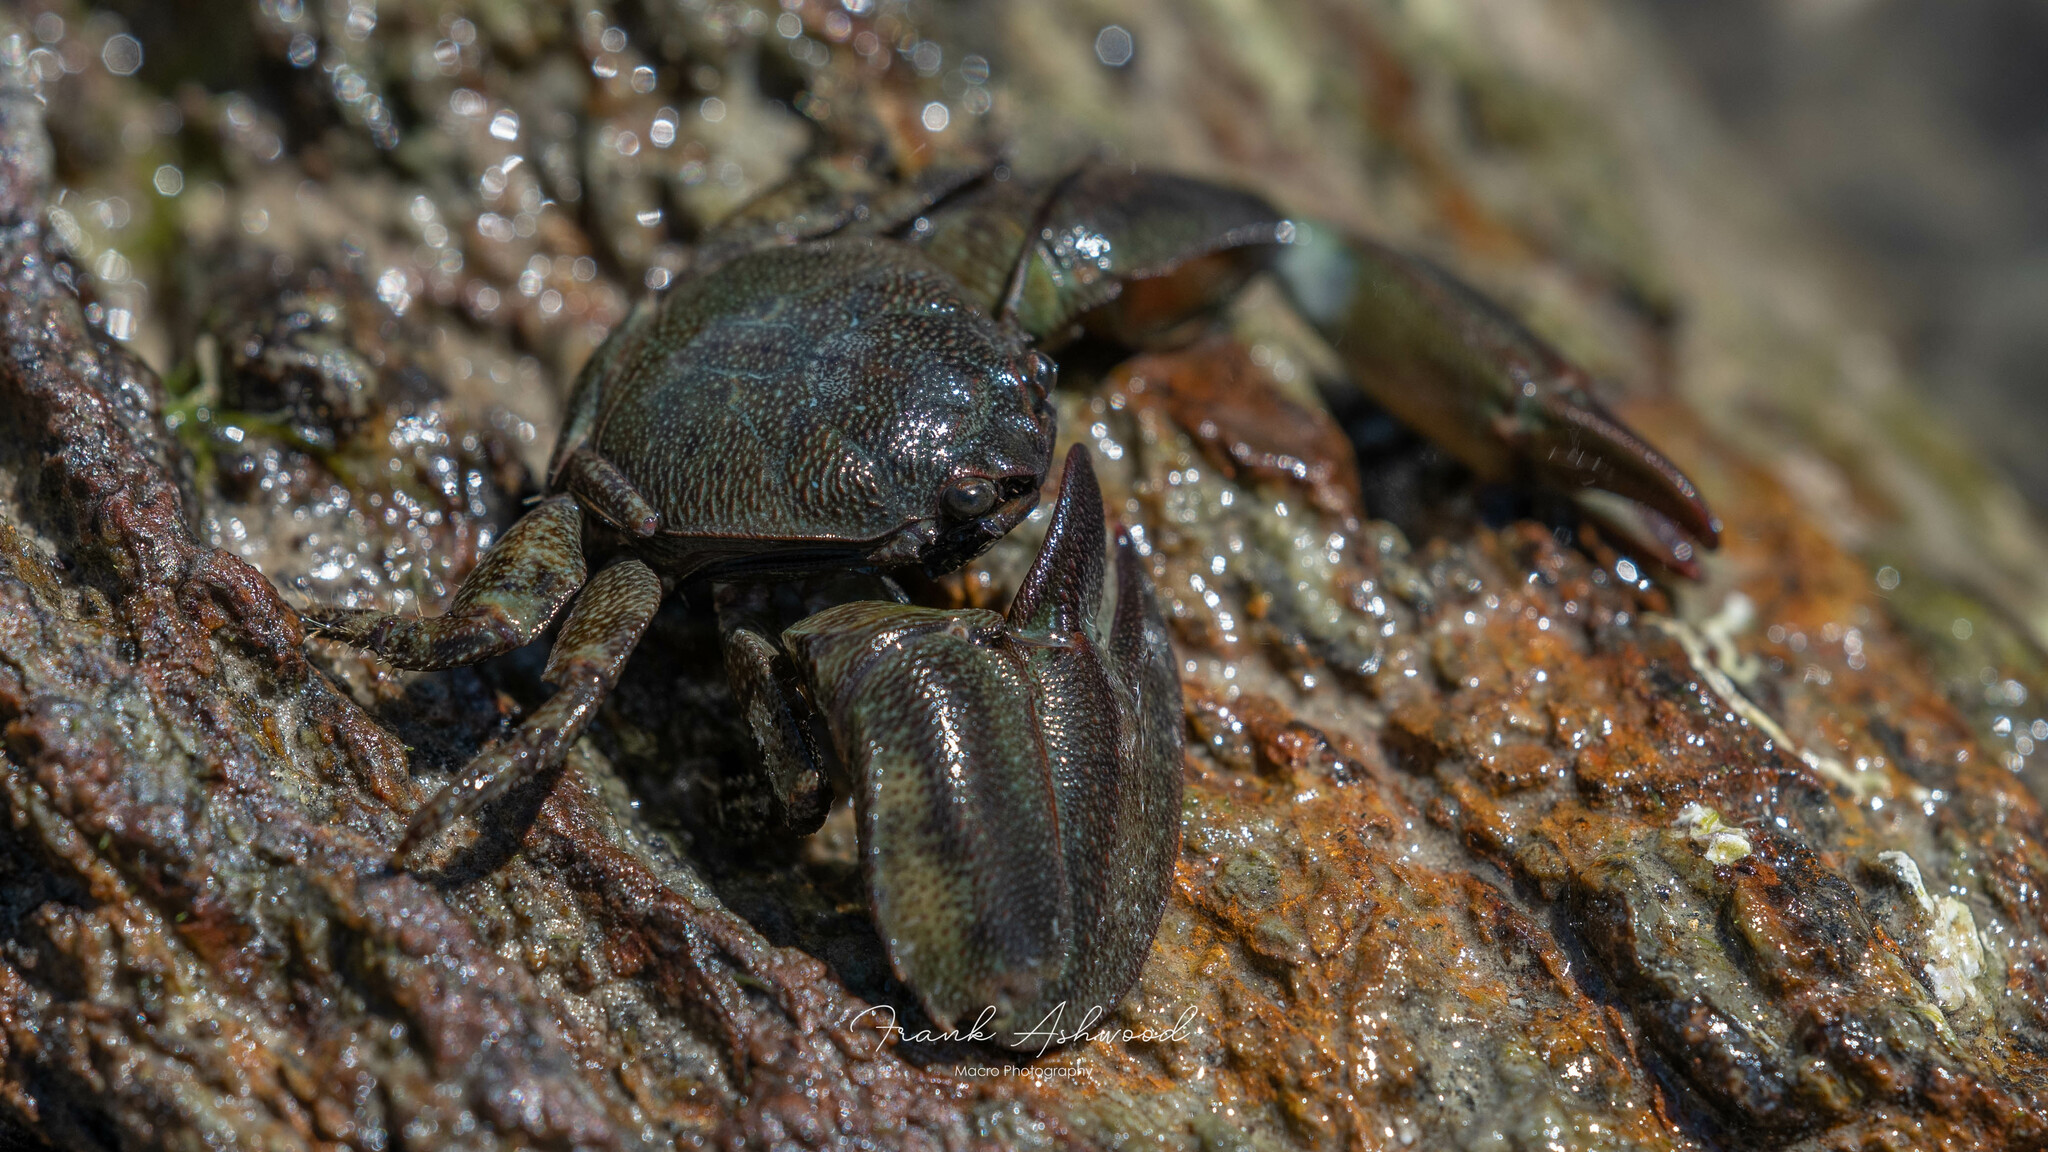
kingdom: Animalia
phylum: Arthropoda
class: Malacostraca
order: Decapoda
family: Porcellanidae
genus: Petrolisthes
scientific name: Petrolisthes elongatus
